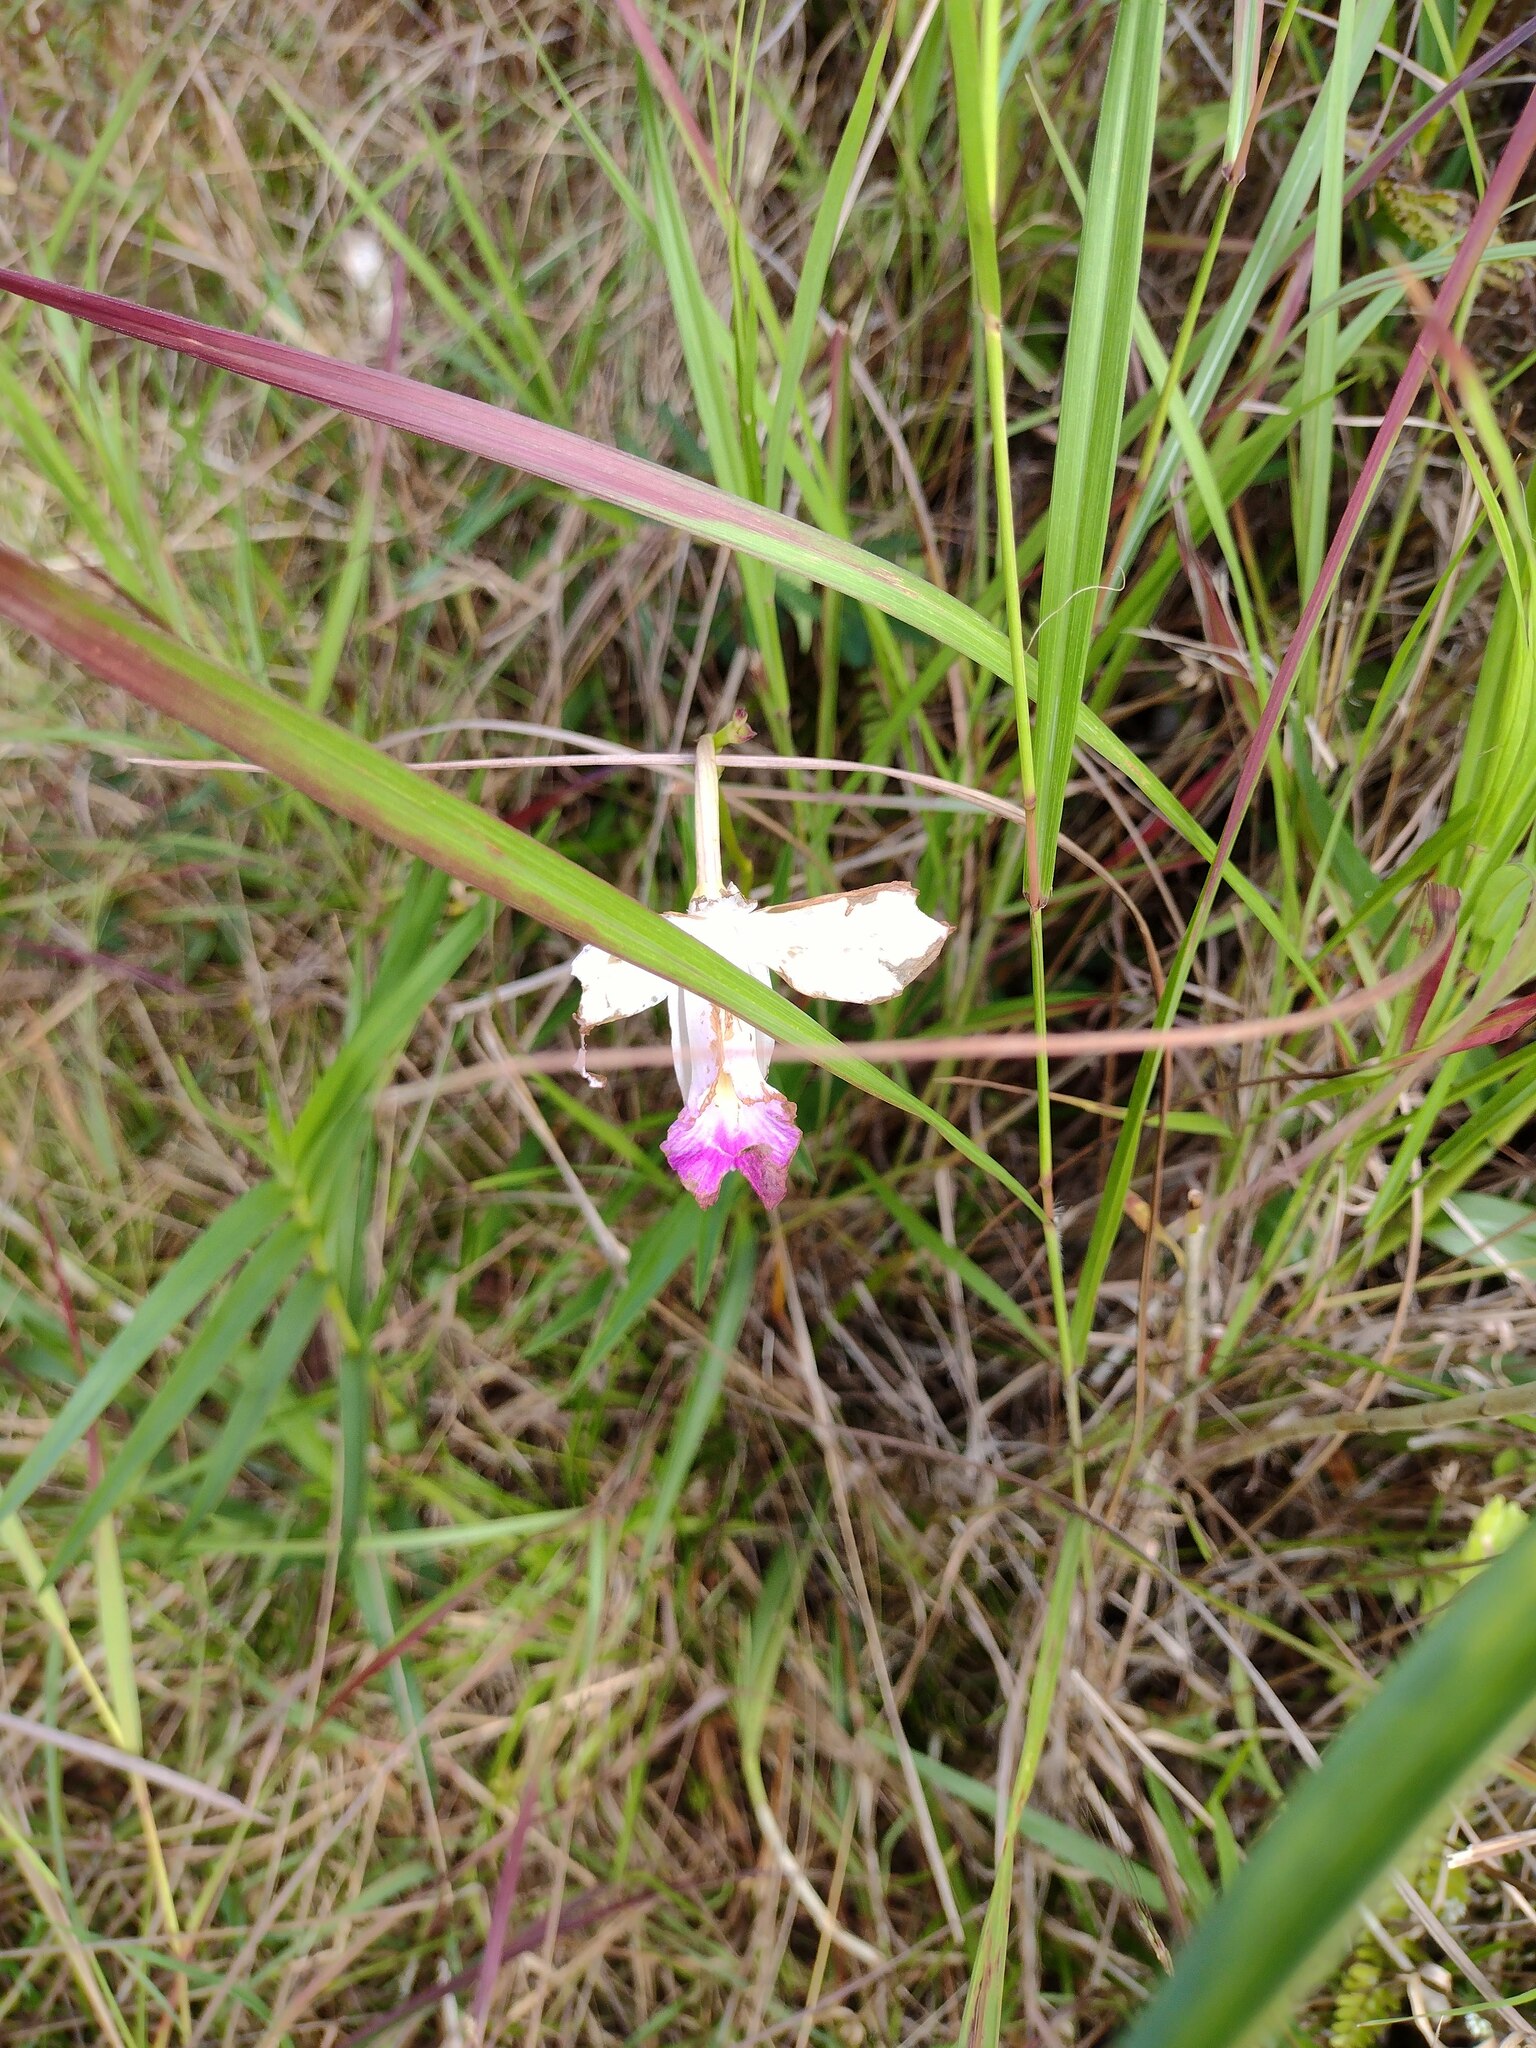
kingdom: Plantae
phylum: Tracheophyta
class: Liliopsida
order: Asparagales
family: Orchidaceae
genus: Arundina
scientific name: Arundina graminifolia
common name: Bamboo orchid
